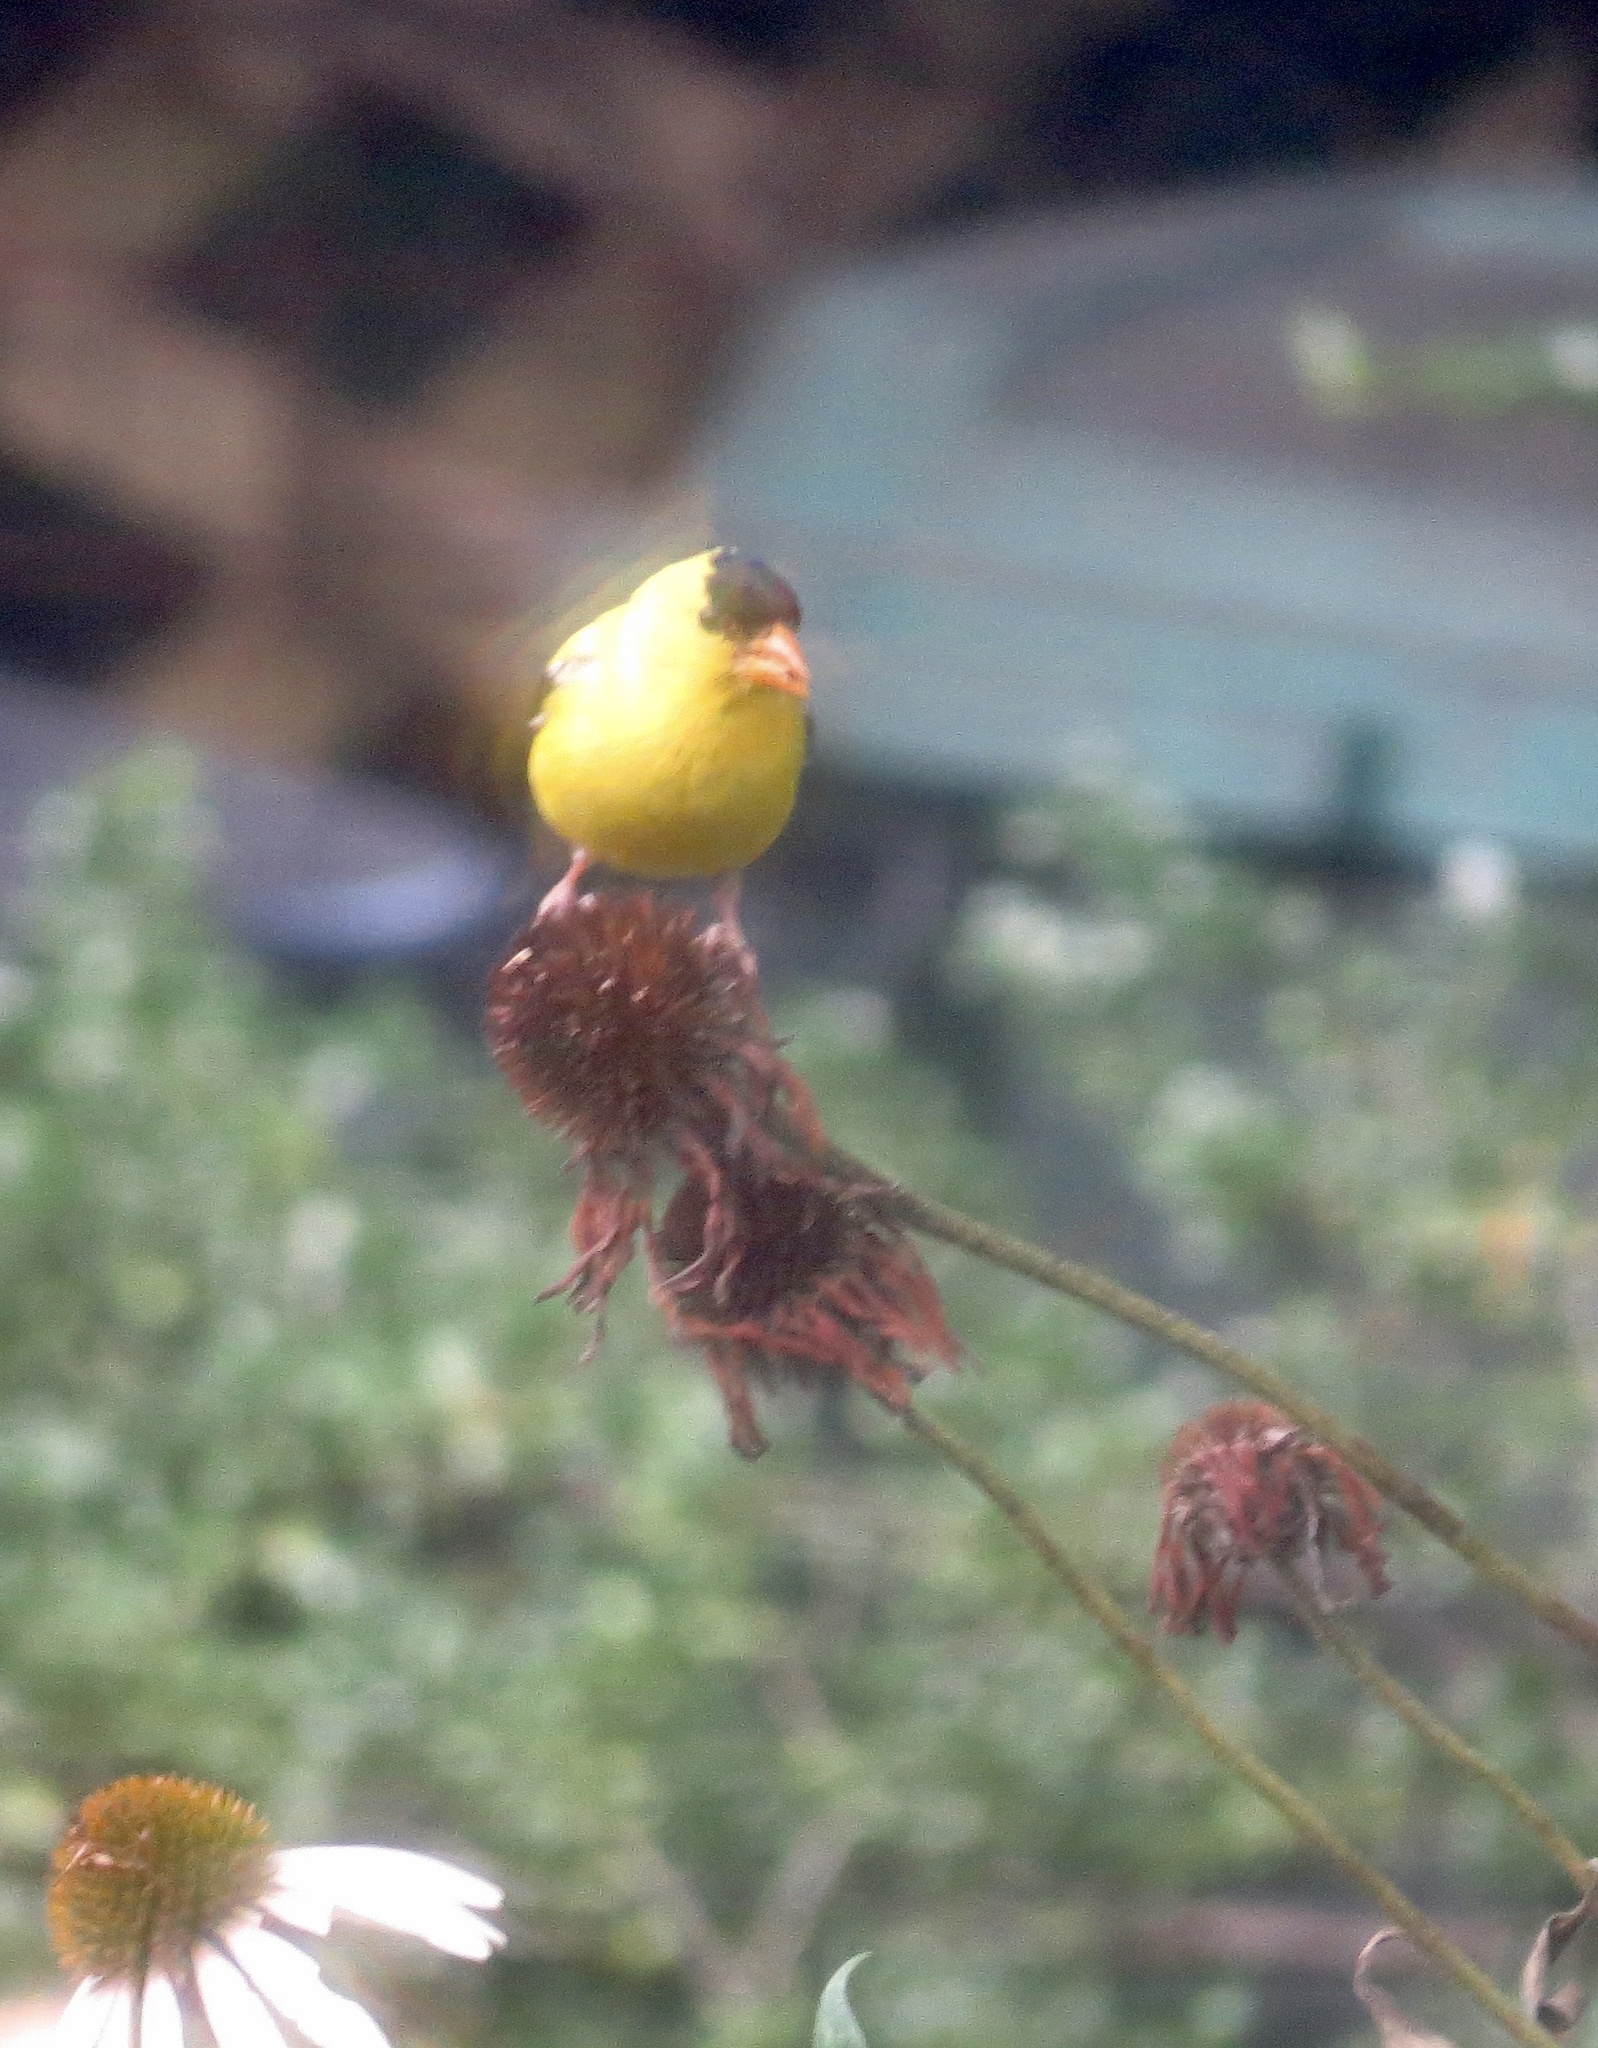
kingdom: Animalia
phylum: Chordata
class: Aves
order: Passeriformes
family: Fringillidae
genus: Spinus
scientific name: Spinus tristis
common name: American goldfinch
